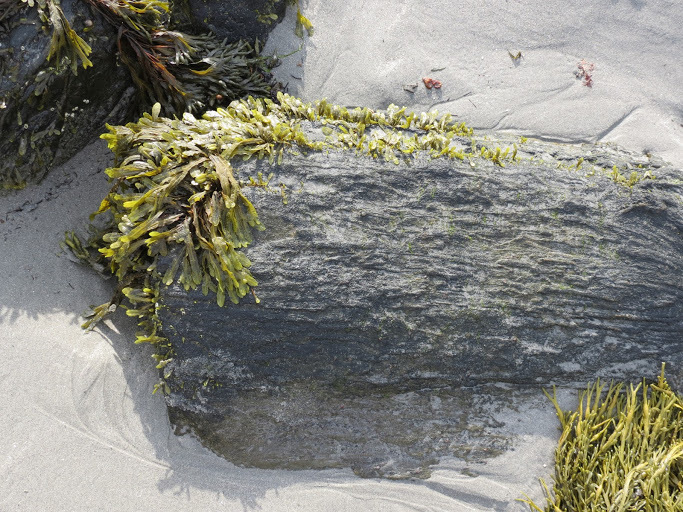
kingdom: Chromista
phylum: Ochrophyta
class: Phaeophyceae
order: Fucales
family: Fucaceae
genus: Ascophyllum
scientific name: Ascophyllum nodosum
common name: Knotted wrack
